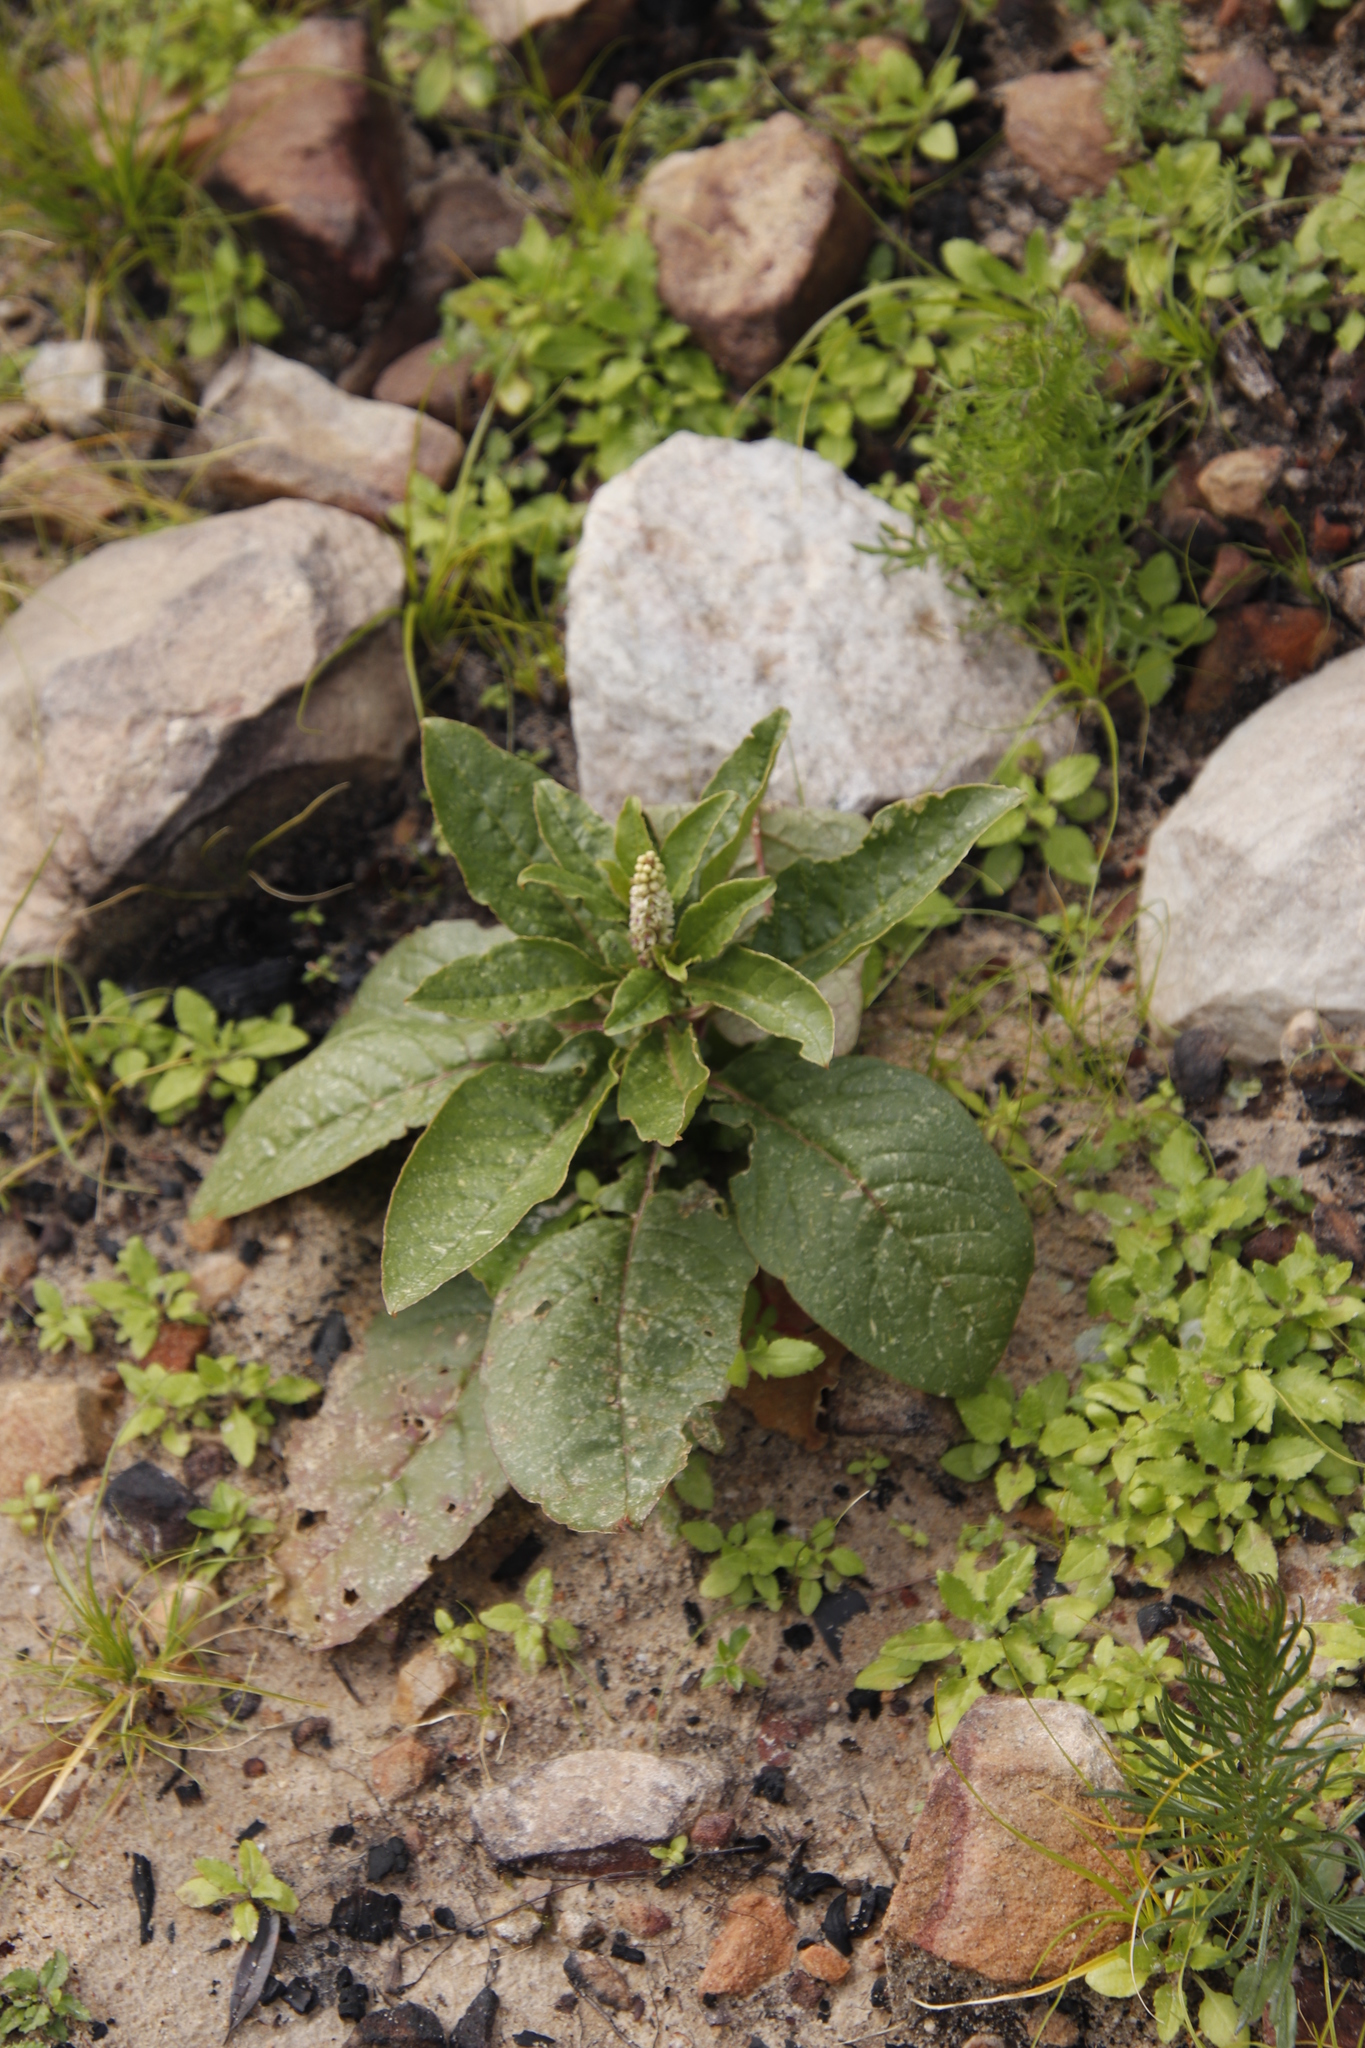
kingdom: Plantae
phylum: Tracheophyta
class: Magnoliopsida
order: Caryophyllales
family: Phytolaccaceae
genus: Phytolacca
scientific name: Phytolacca icosandra
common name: Button pokeweed
